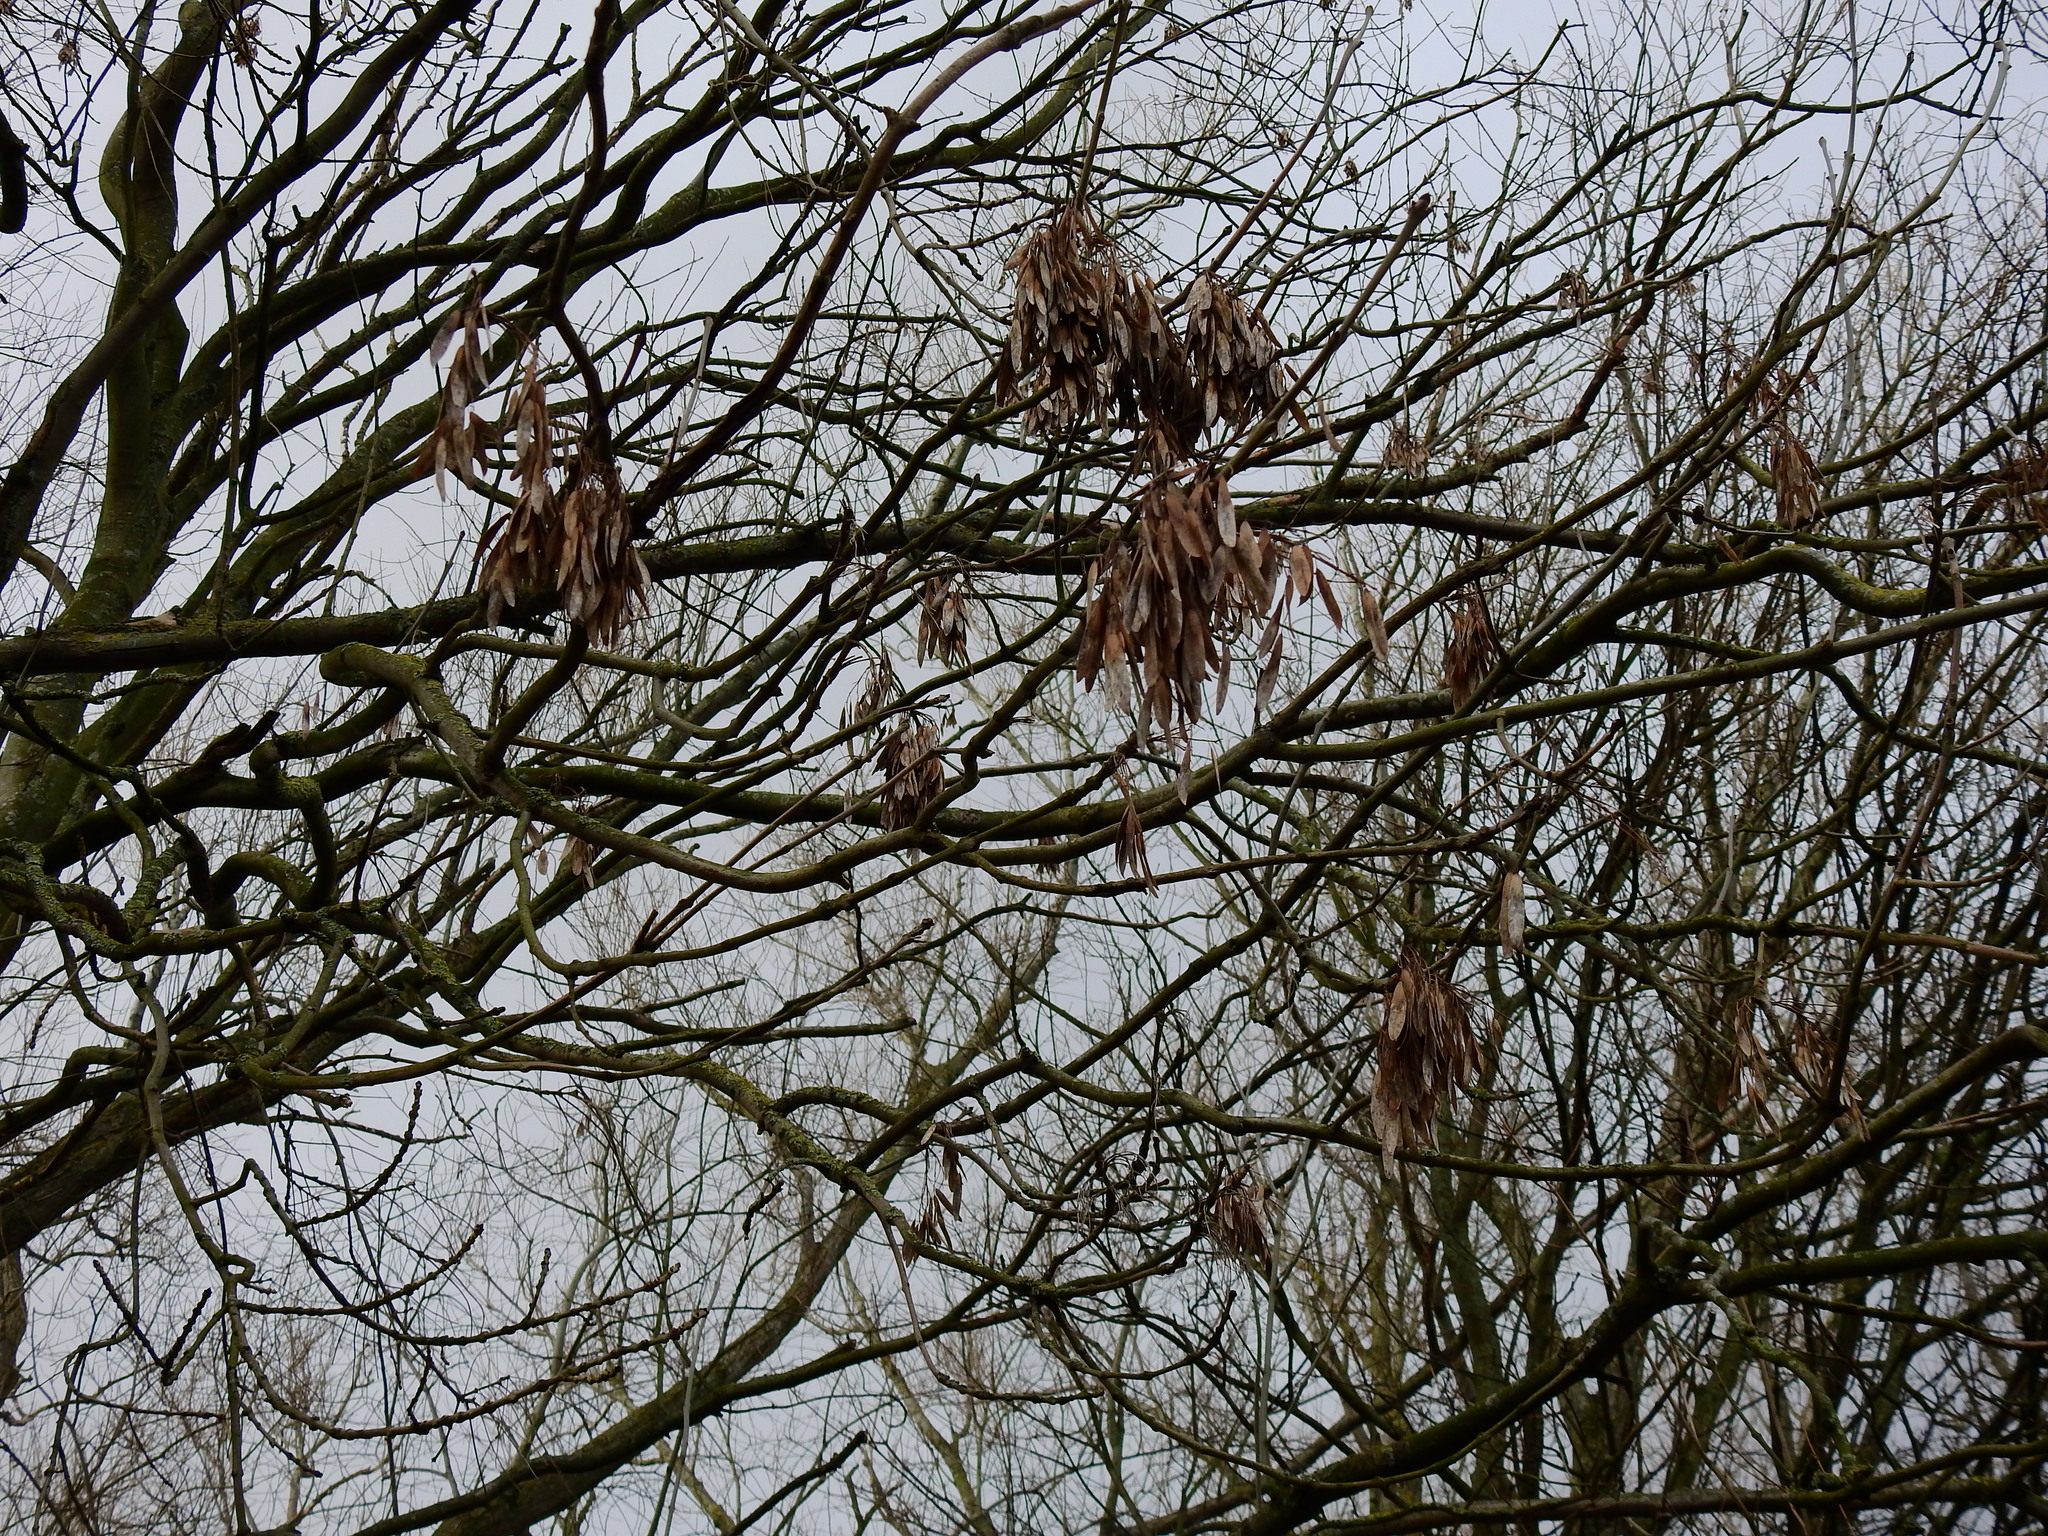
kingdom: Plantae
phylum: Tracheophyta
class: Magnoliopsida
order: Lamiales
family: Oleaceae
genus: Fraxinus
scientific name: Fraxinus excelsior
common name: European ash
